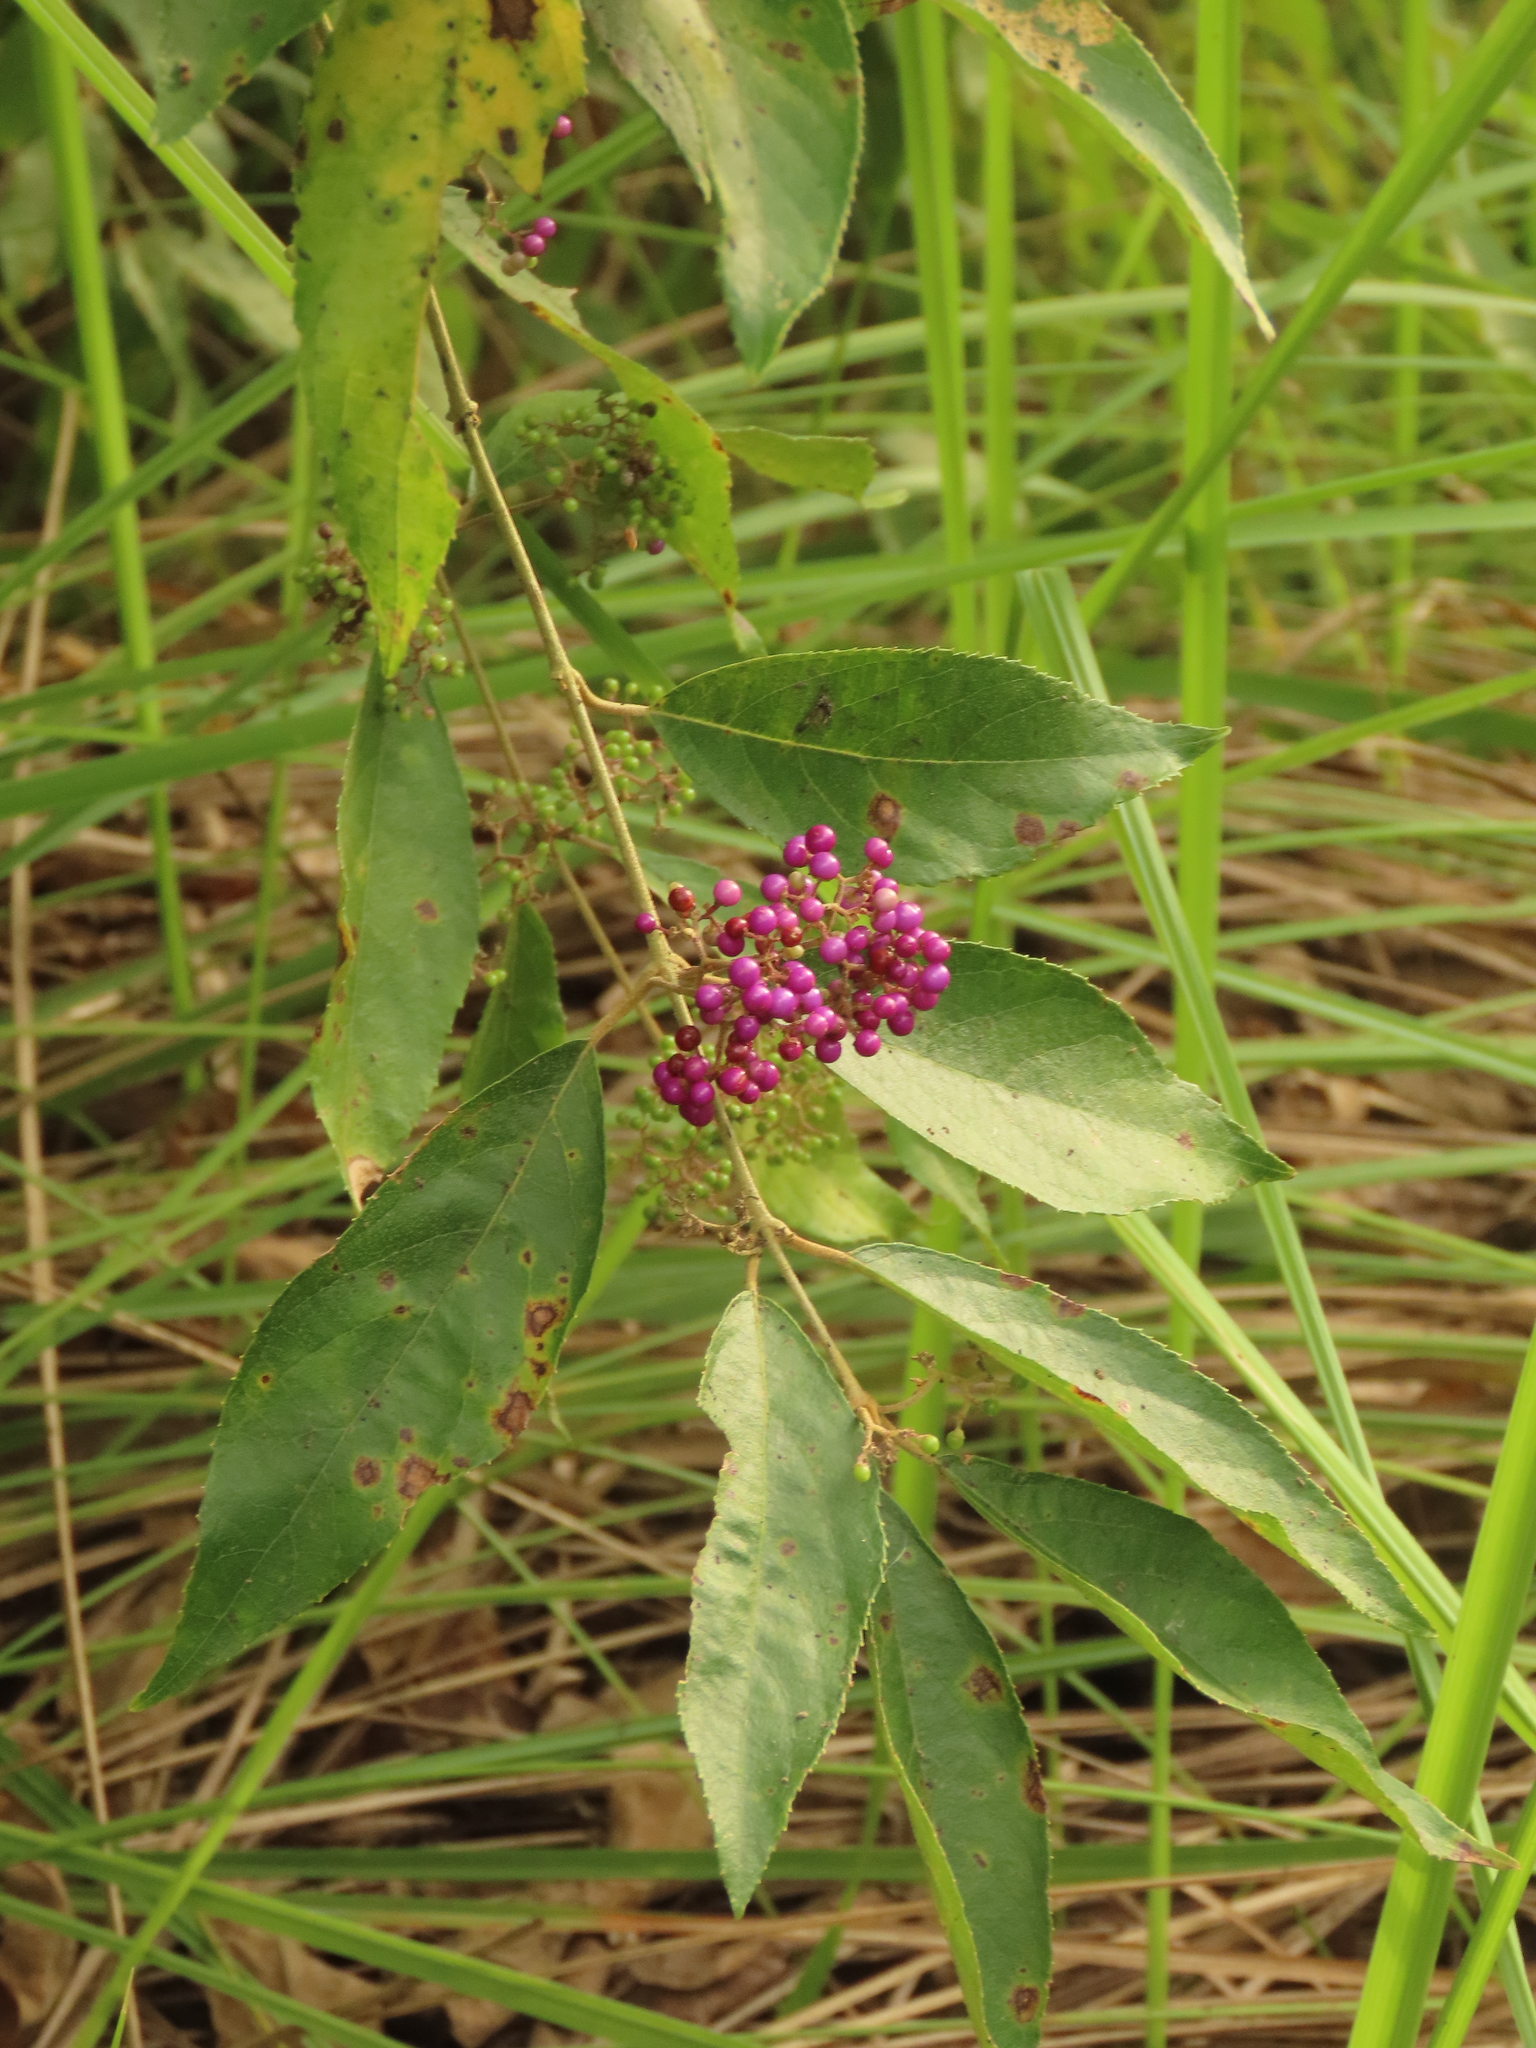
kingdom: Plantae
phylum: Tracheophyta
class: Magnoliopsida
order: Lamiales
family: Lamiaceae
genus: Callicarpa
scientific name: Callicarpa pedunculata
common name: Velvetleaf
